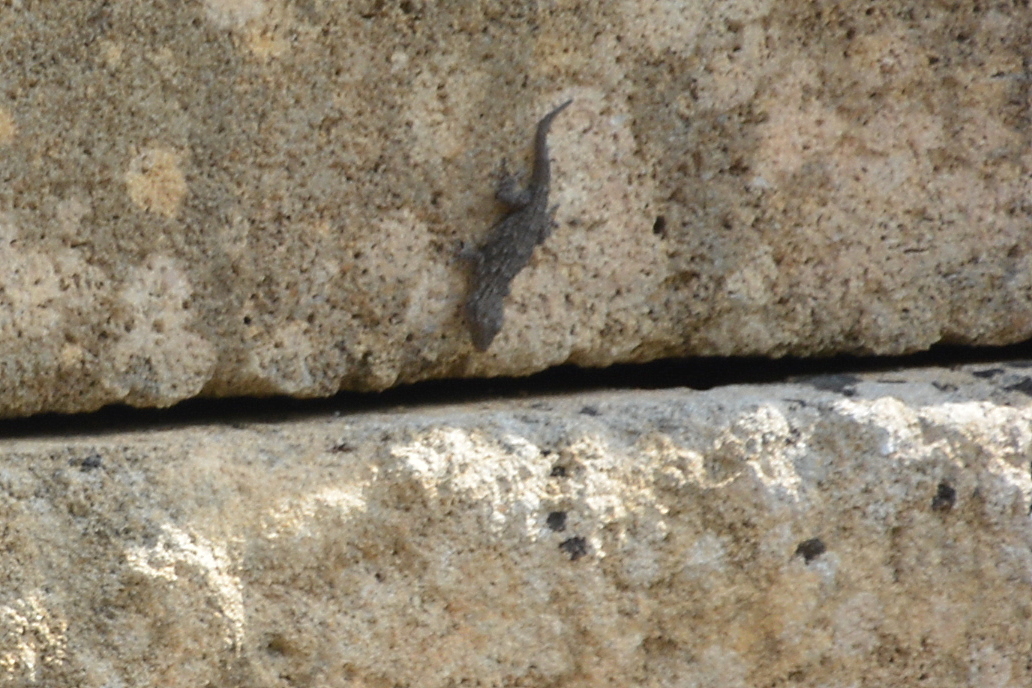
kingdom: Animalia
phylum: Chordata
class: Squamata
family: Phyllodactylidae
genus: Tarentola
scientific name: Tarentola mauritanica
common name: Moorish gecko
